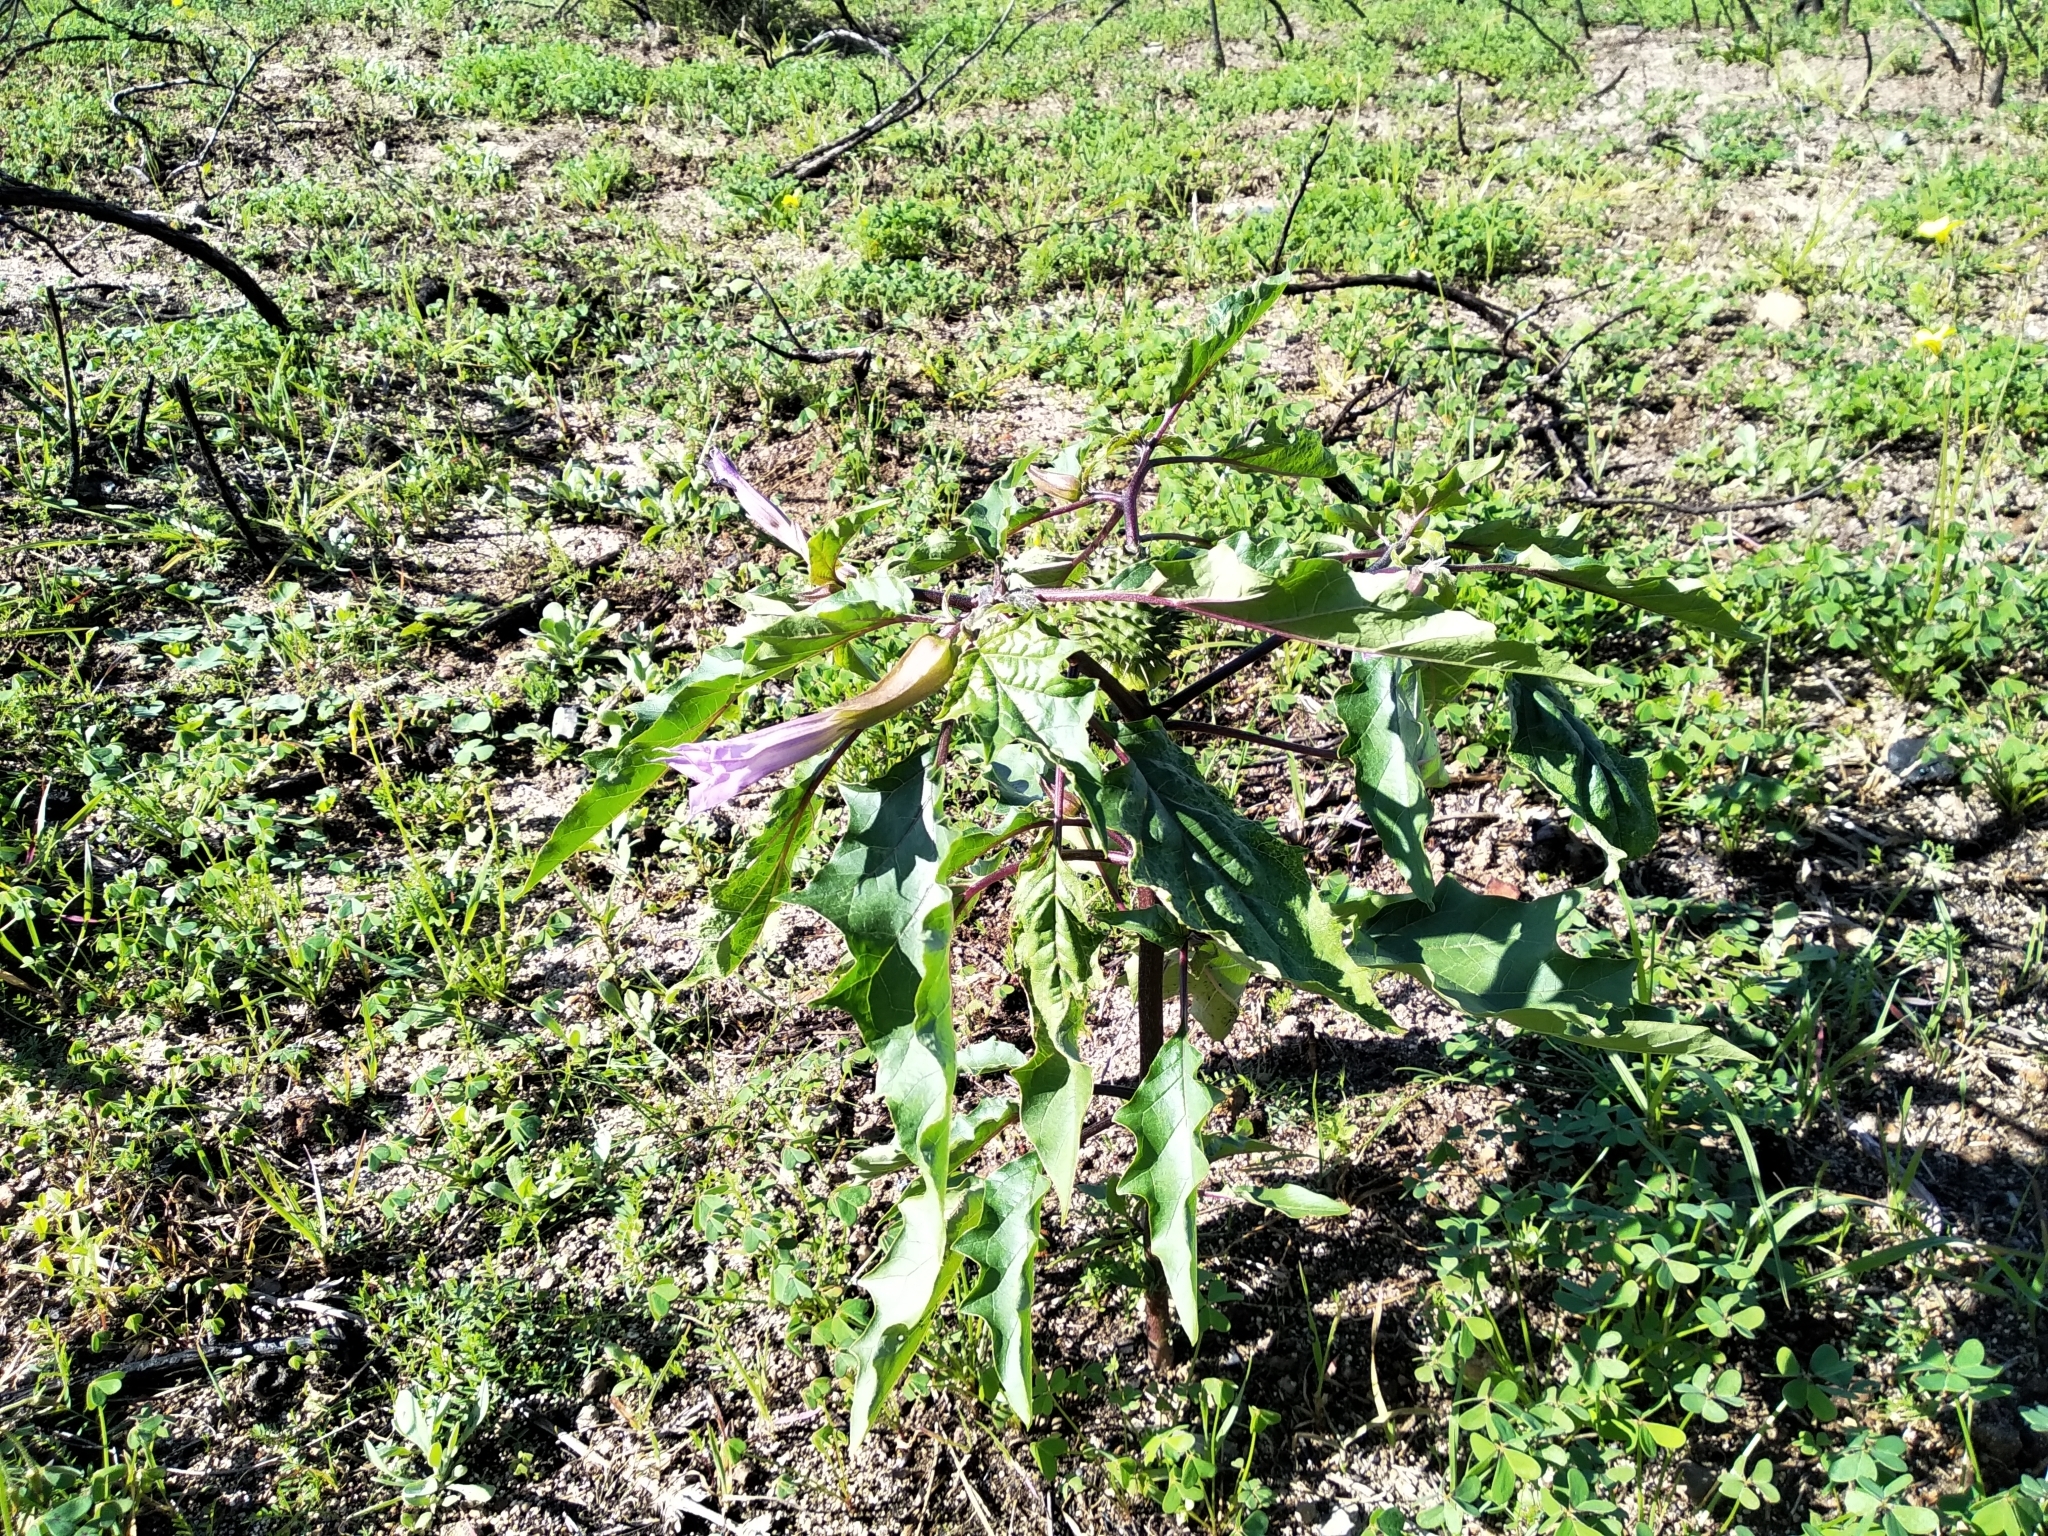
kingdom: Plantae
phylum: Tracheophyta
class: Magnoliopsida
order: Solanales
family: Solanaceae
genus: Datura
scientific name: Datura stramonium
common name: Thorn-apple
